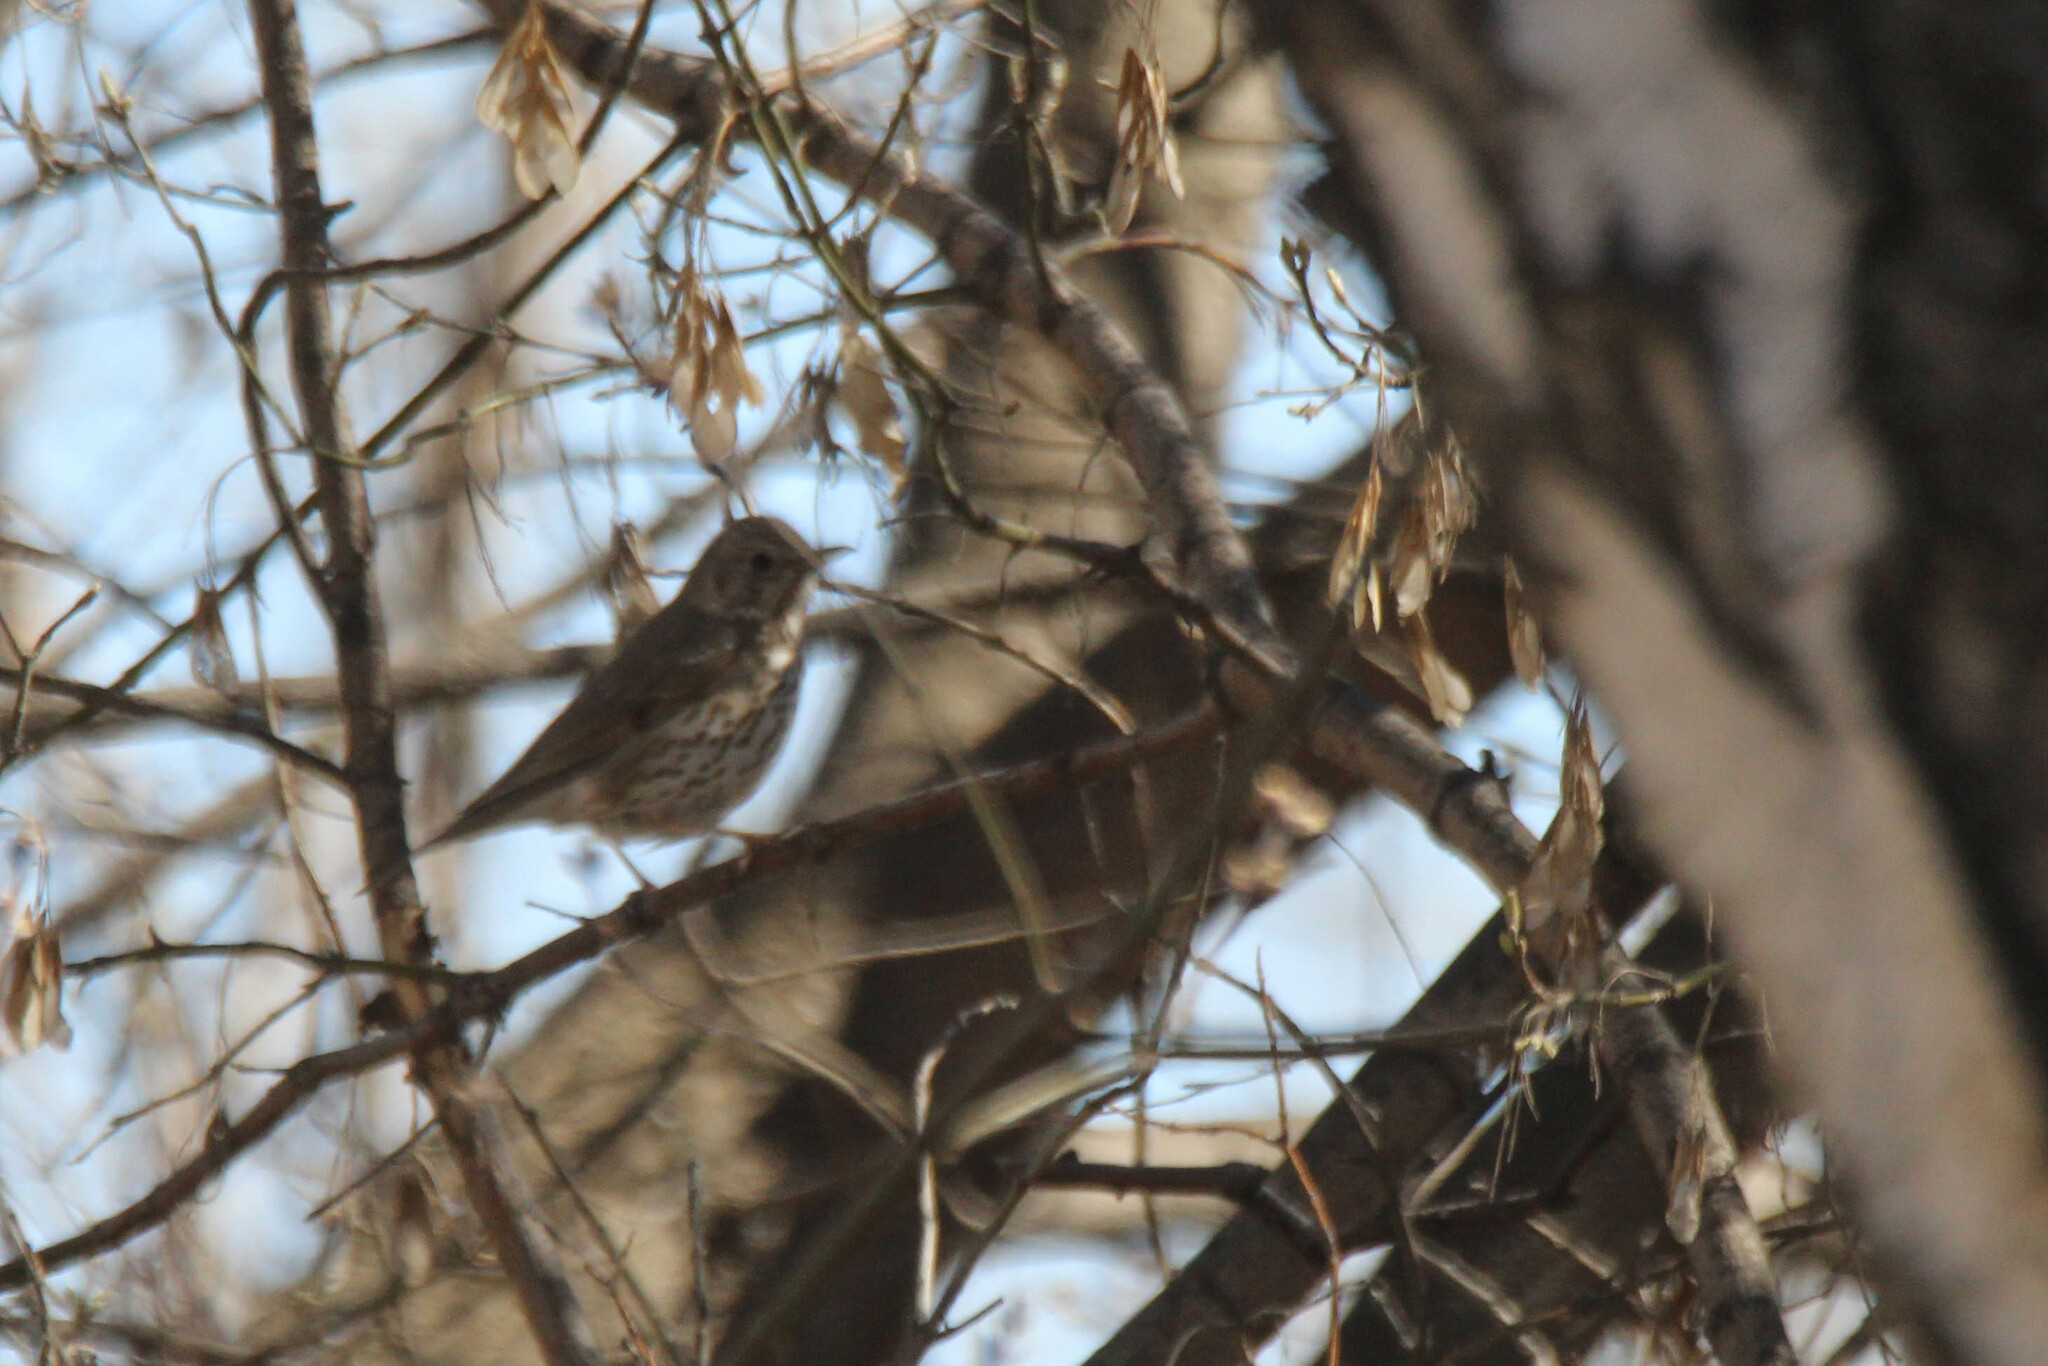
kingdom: Animalia
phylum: Chordata
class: Aves
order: Passeriformes
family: Turdidae
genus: Turdus
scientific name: Turdus philomelos
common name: Song thrush
